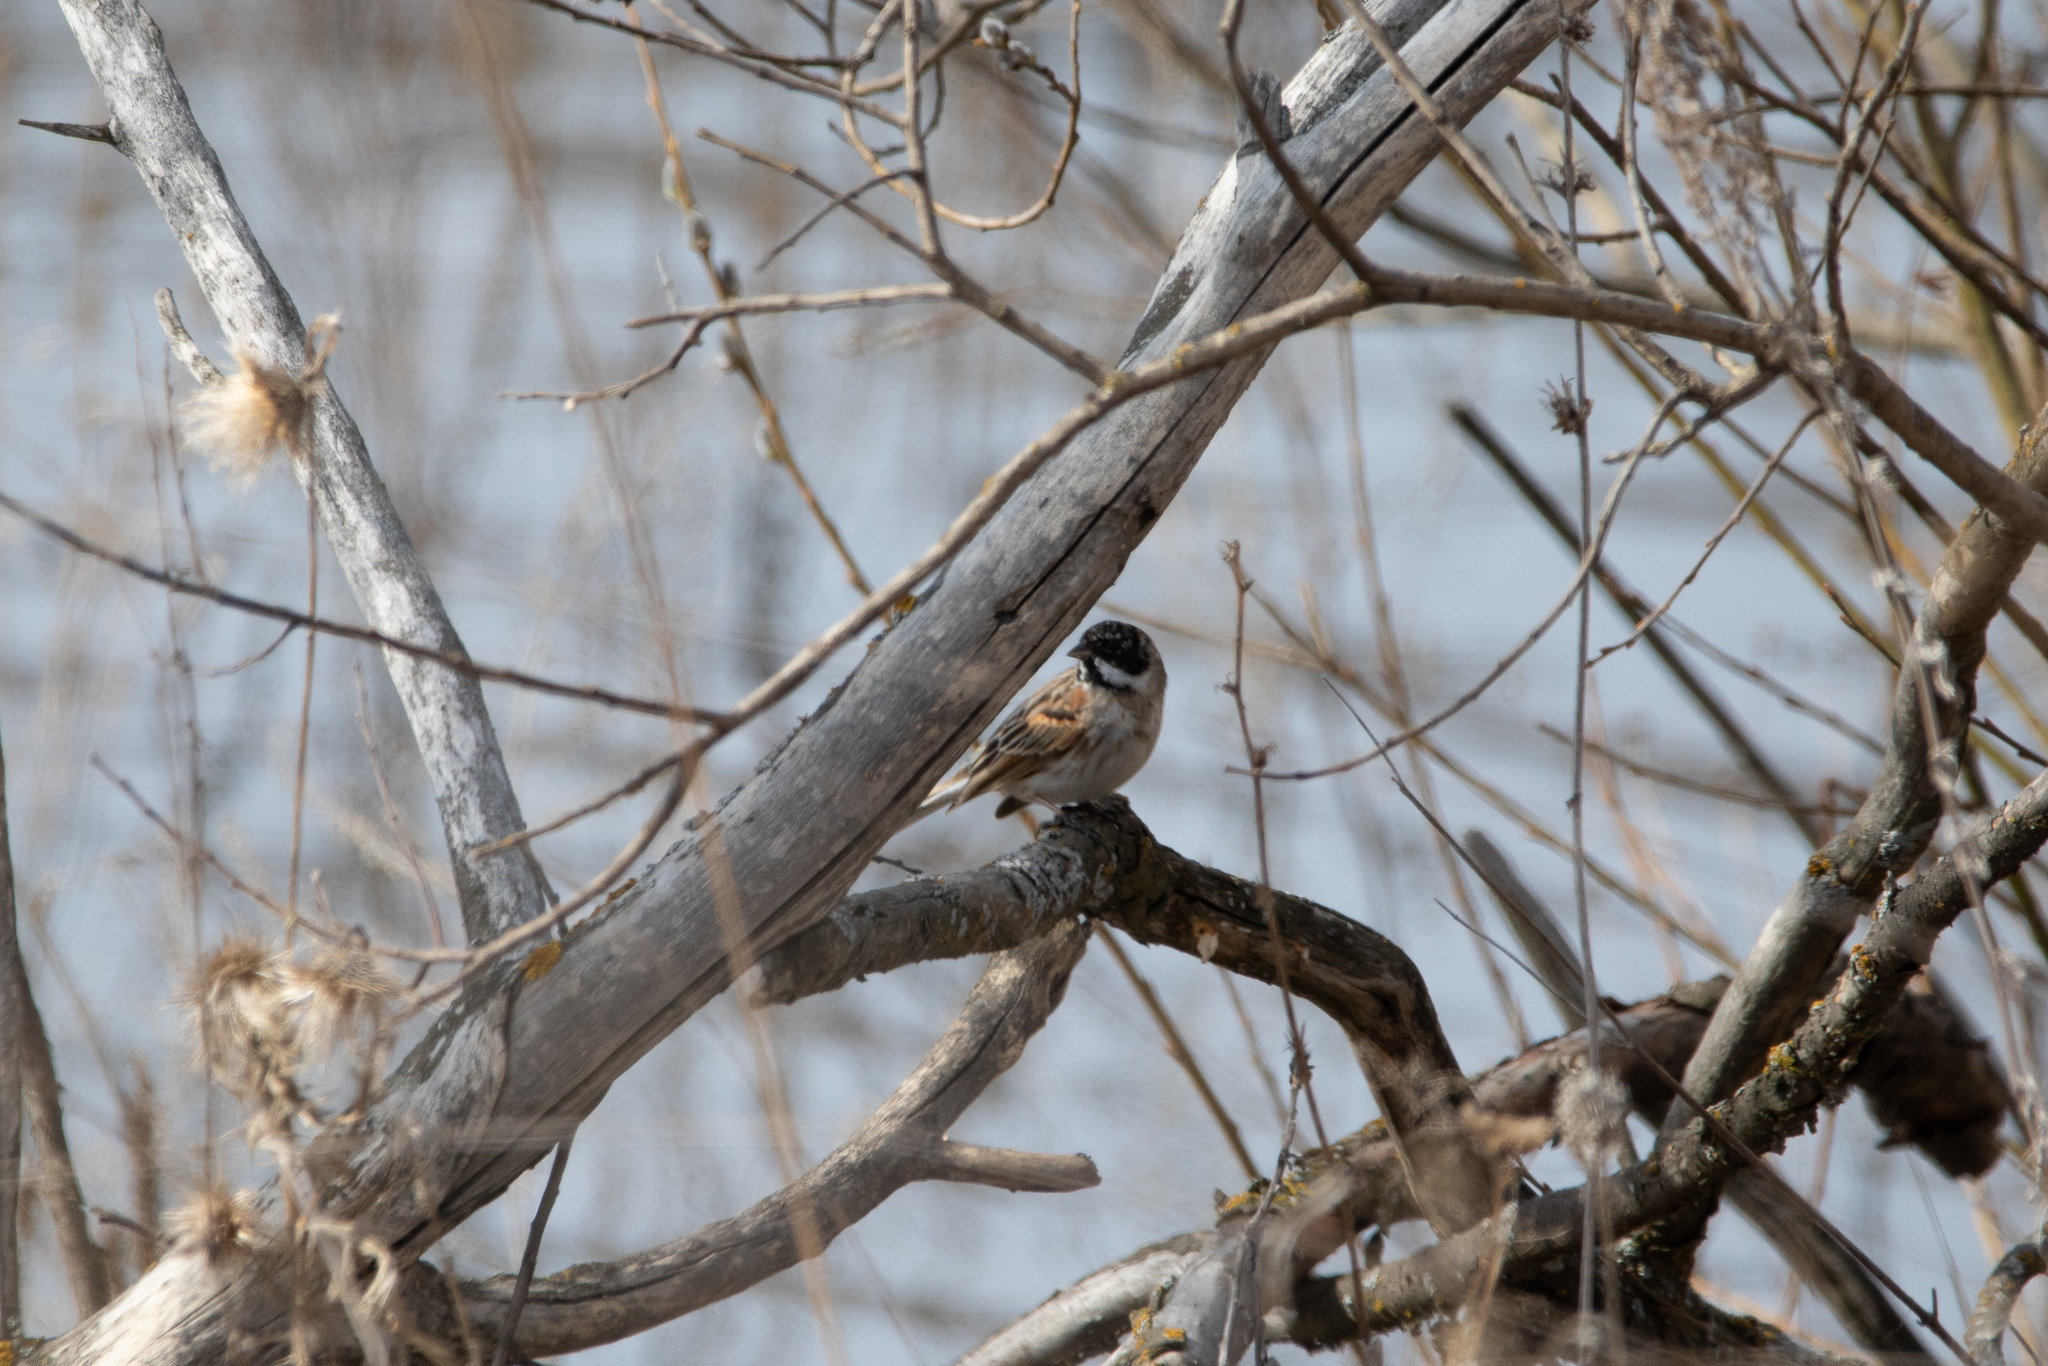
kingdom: Animalia
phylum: Chordata
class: Aves
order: Passeriformes
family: Emberizidae
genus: Emberiza
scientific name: Emberiza schoeniclus
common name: Reed bunting
